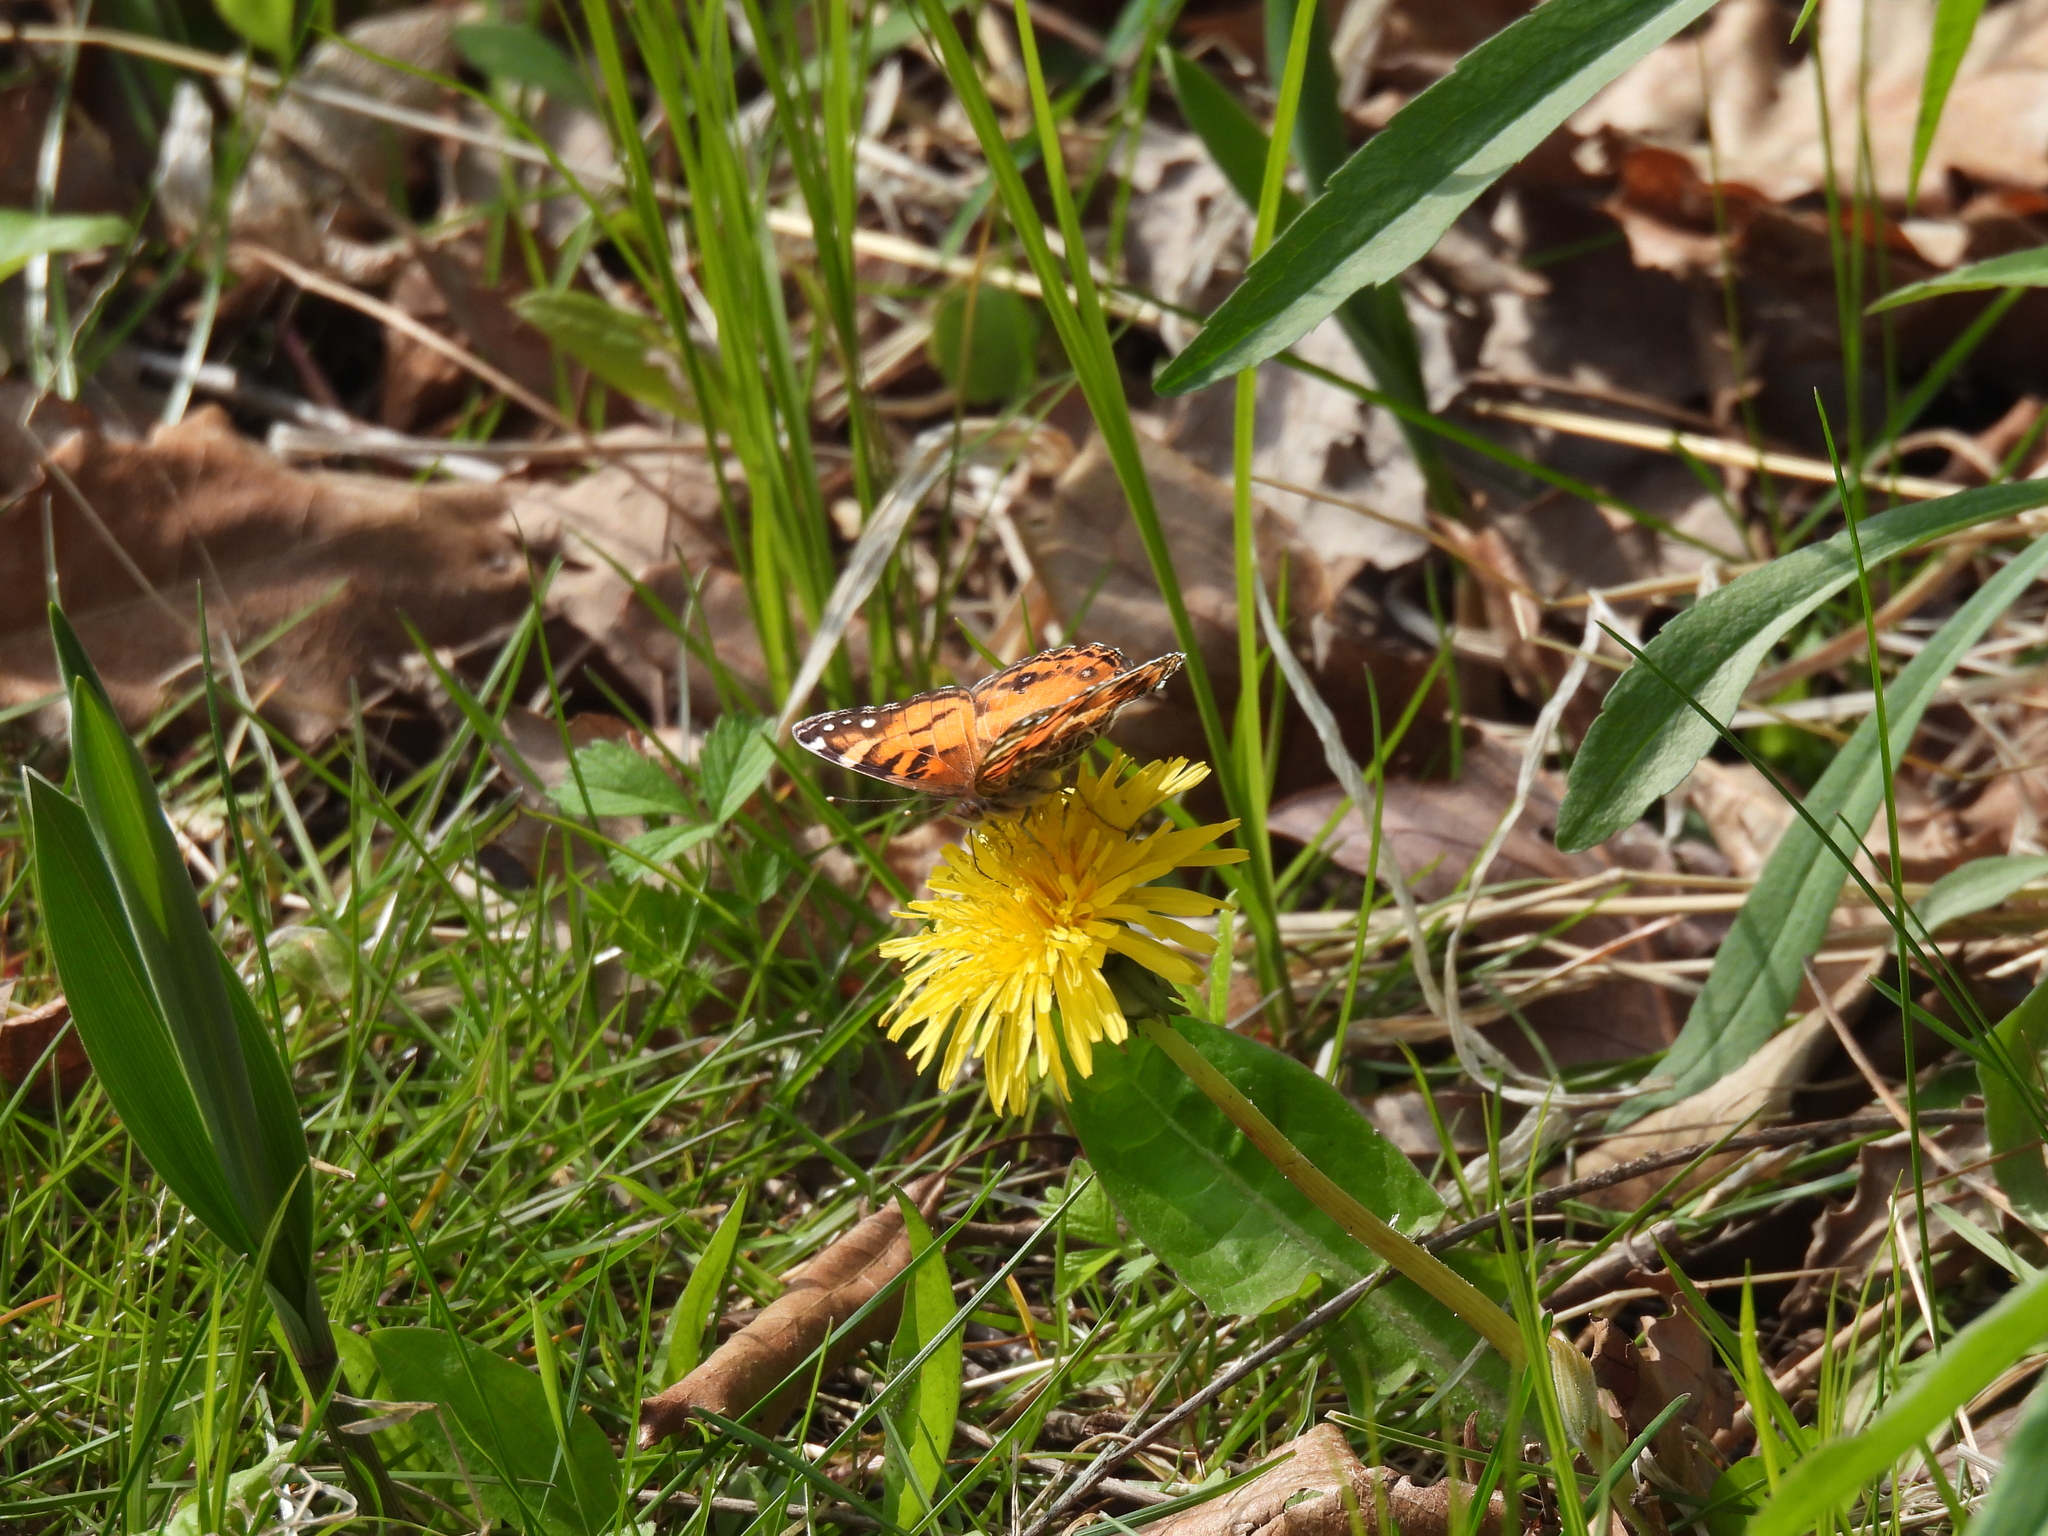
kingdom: Animalia
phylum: Arthropoda
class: Insecta
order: Lepidoptera
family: Nymphalidae
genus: Vanessa
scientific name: Vanessa virginiensis
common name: American lady
